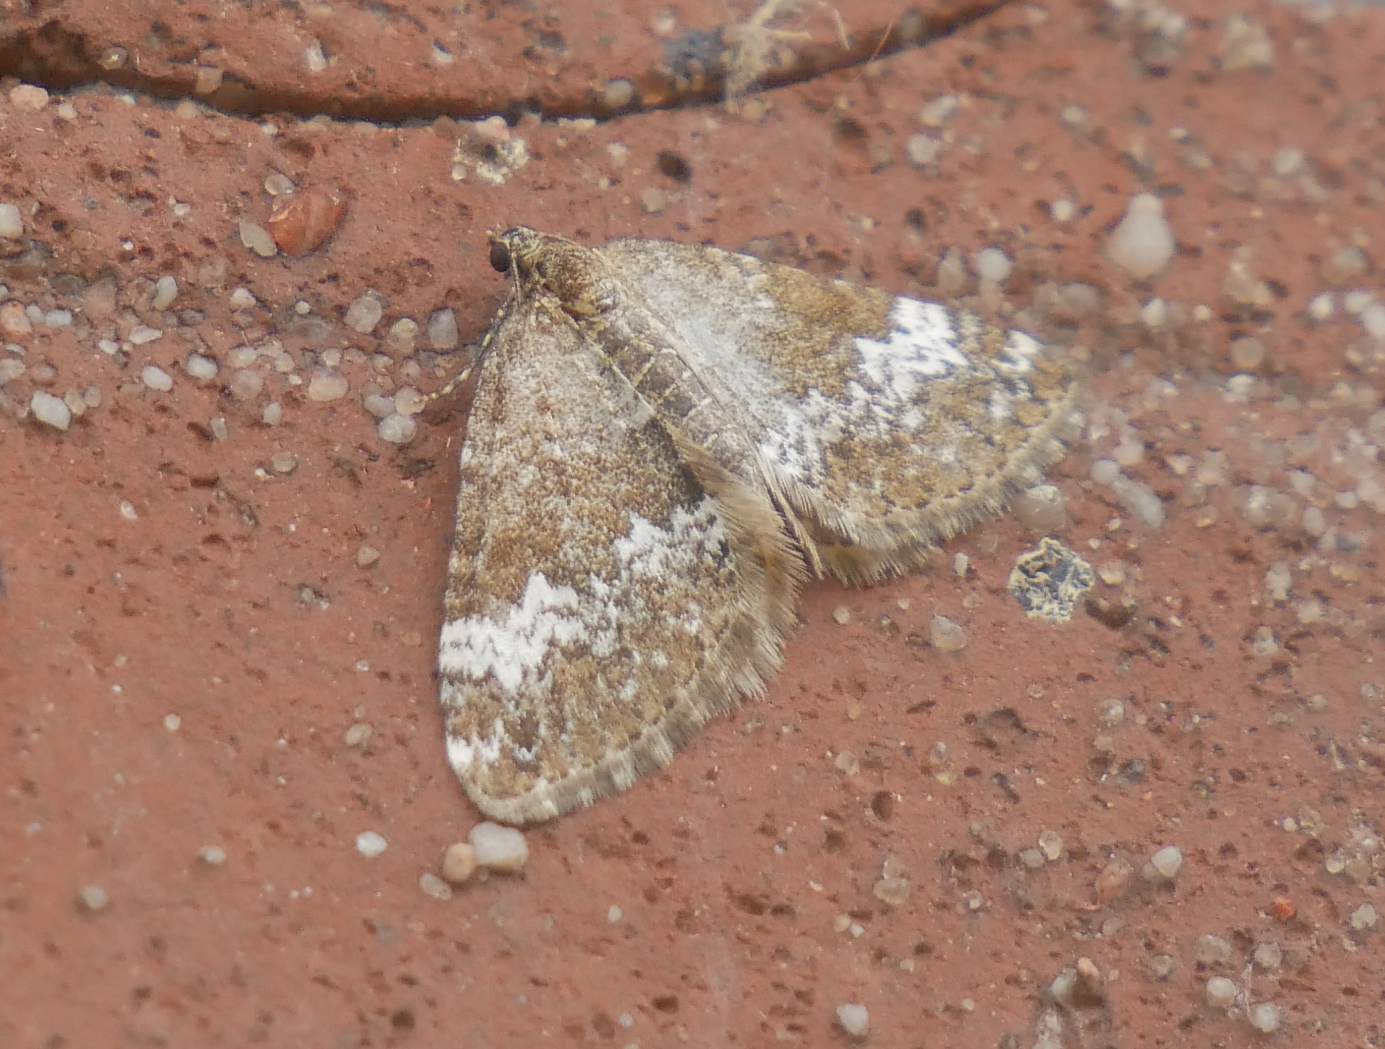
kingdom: Animalia
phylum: Arthropoda
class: Insecta
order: Lepidoptera
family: Geometridae
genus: Perizoma
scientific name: Perizoma alchemillata
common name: Small rivulet
